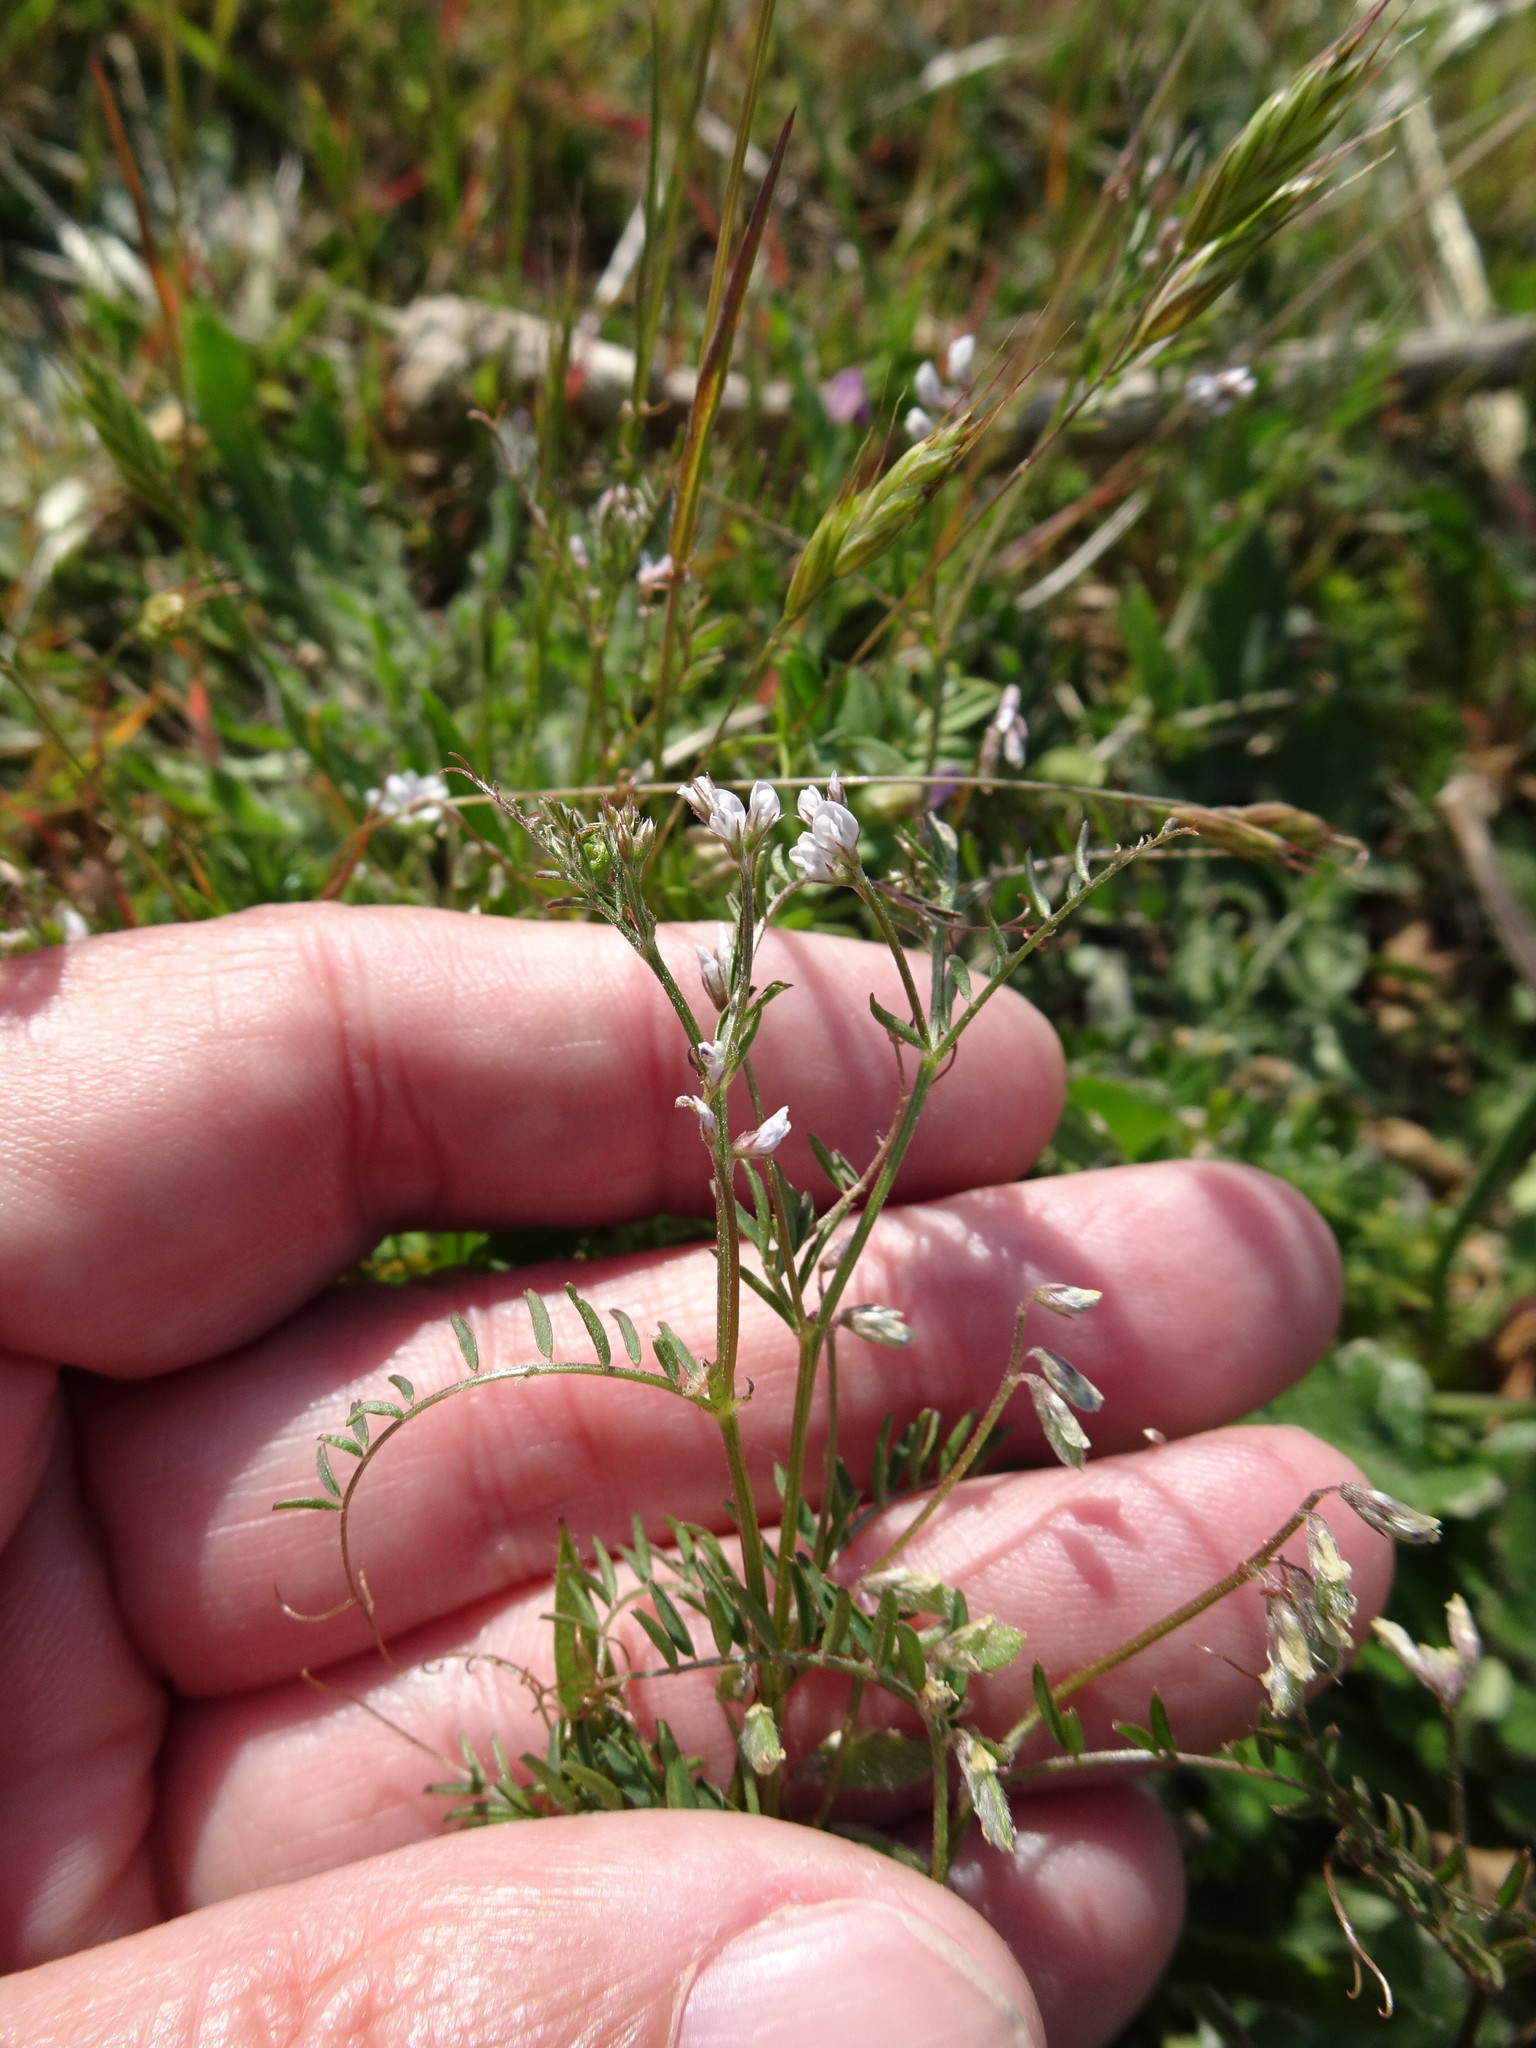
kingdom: Plantae
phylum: Tracheophyta
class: Magnoliopsida
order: Fabales
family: Fabaceae
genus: Vicia
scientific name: Vicia hirsuta
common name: Tiny vetch
